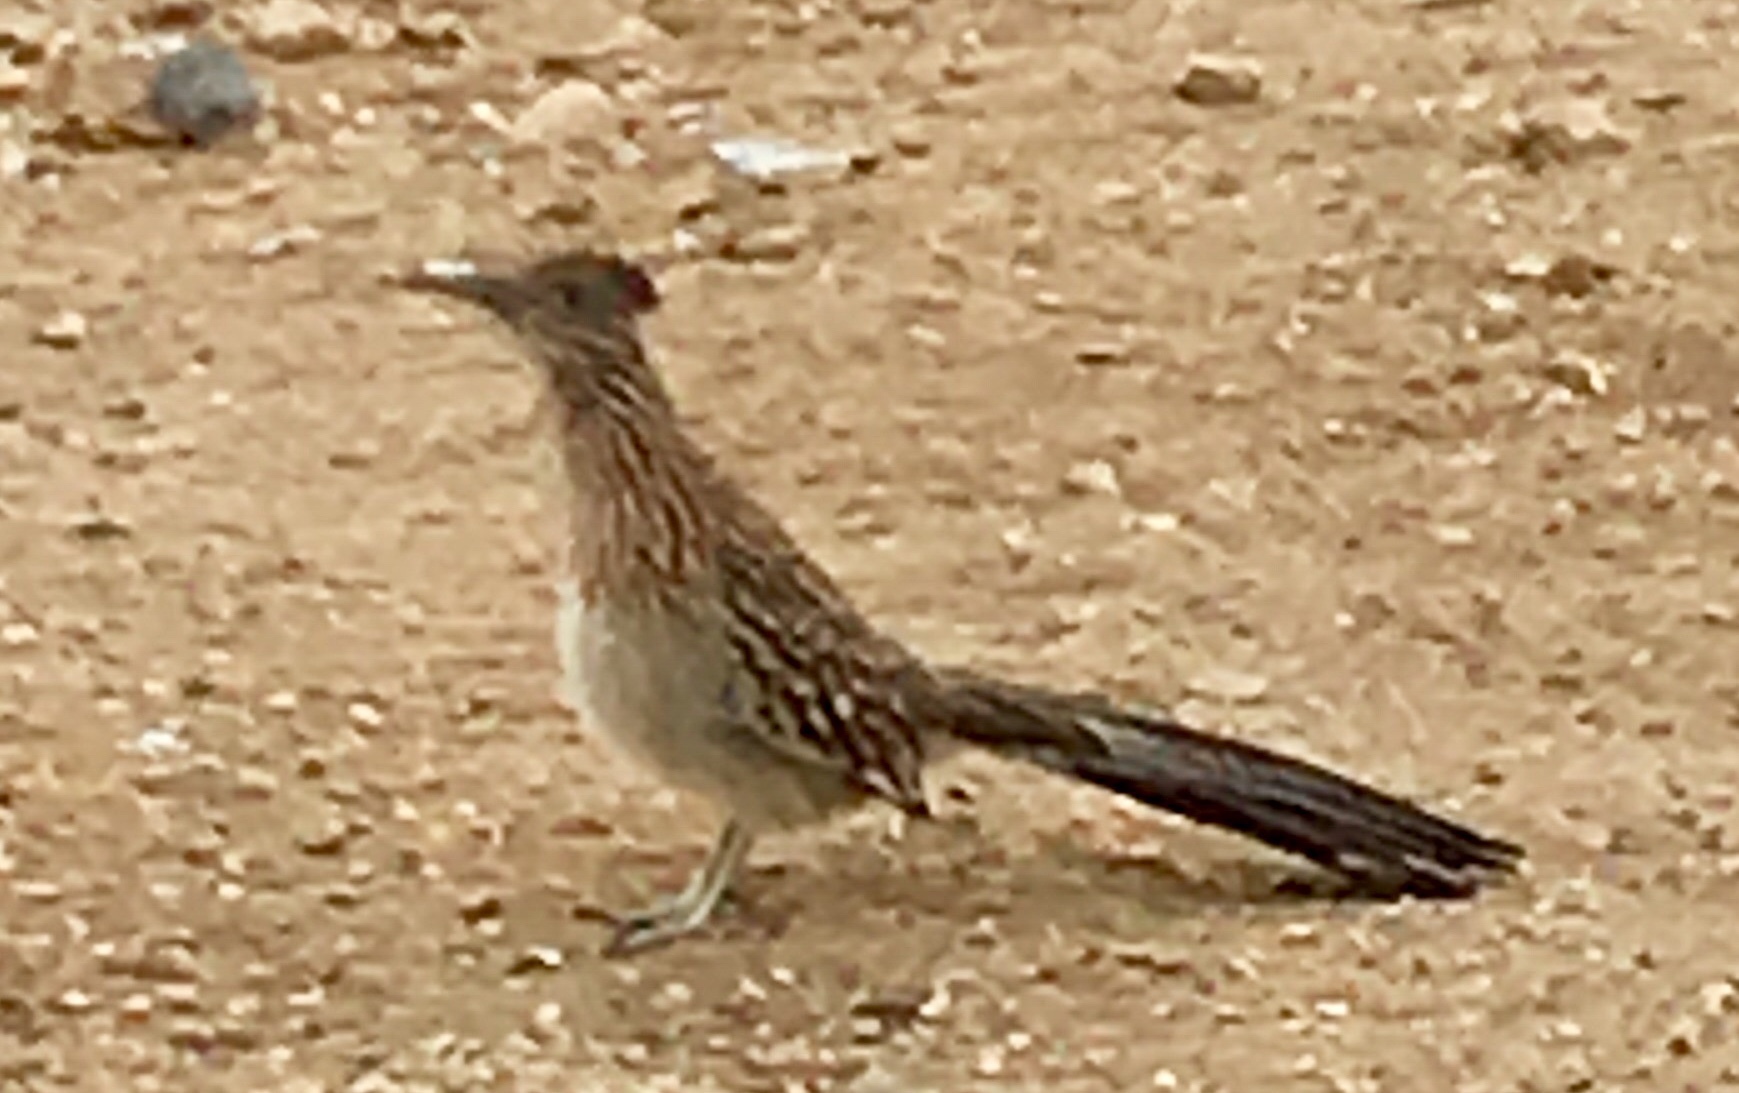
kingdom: Animalia
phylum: Chordata
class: Aves
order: Cuculiformes
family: Cuculidae
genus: Geococcyx
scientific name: Geococcyx californianus
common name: Greater roadrunner
